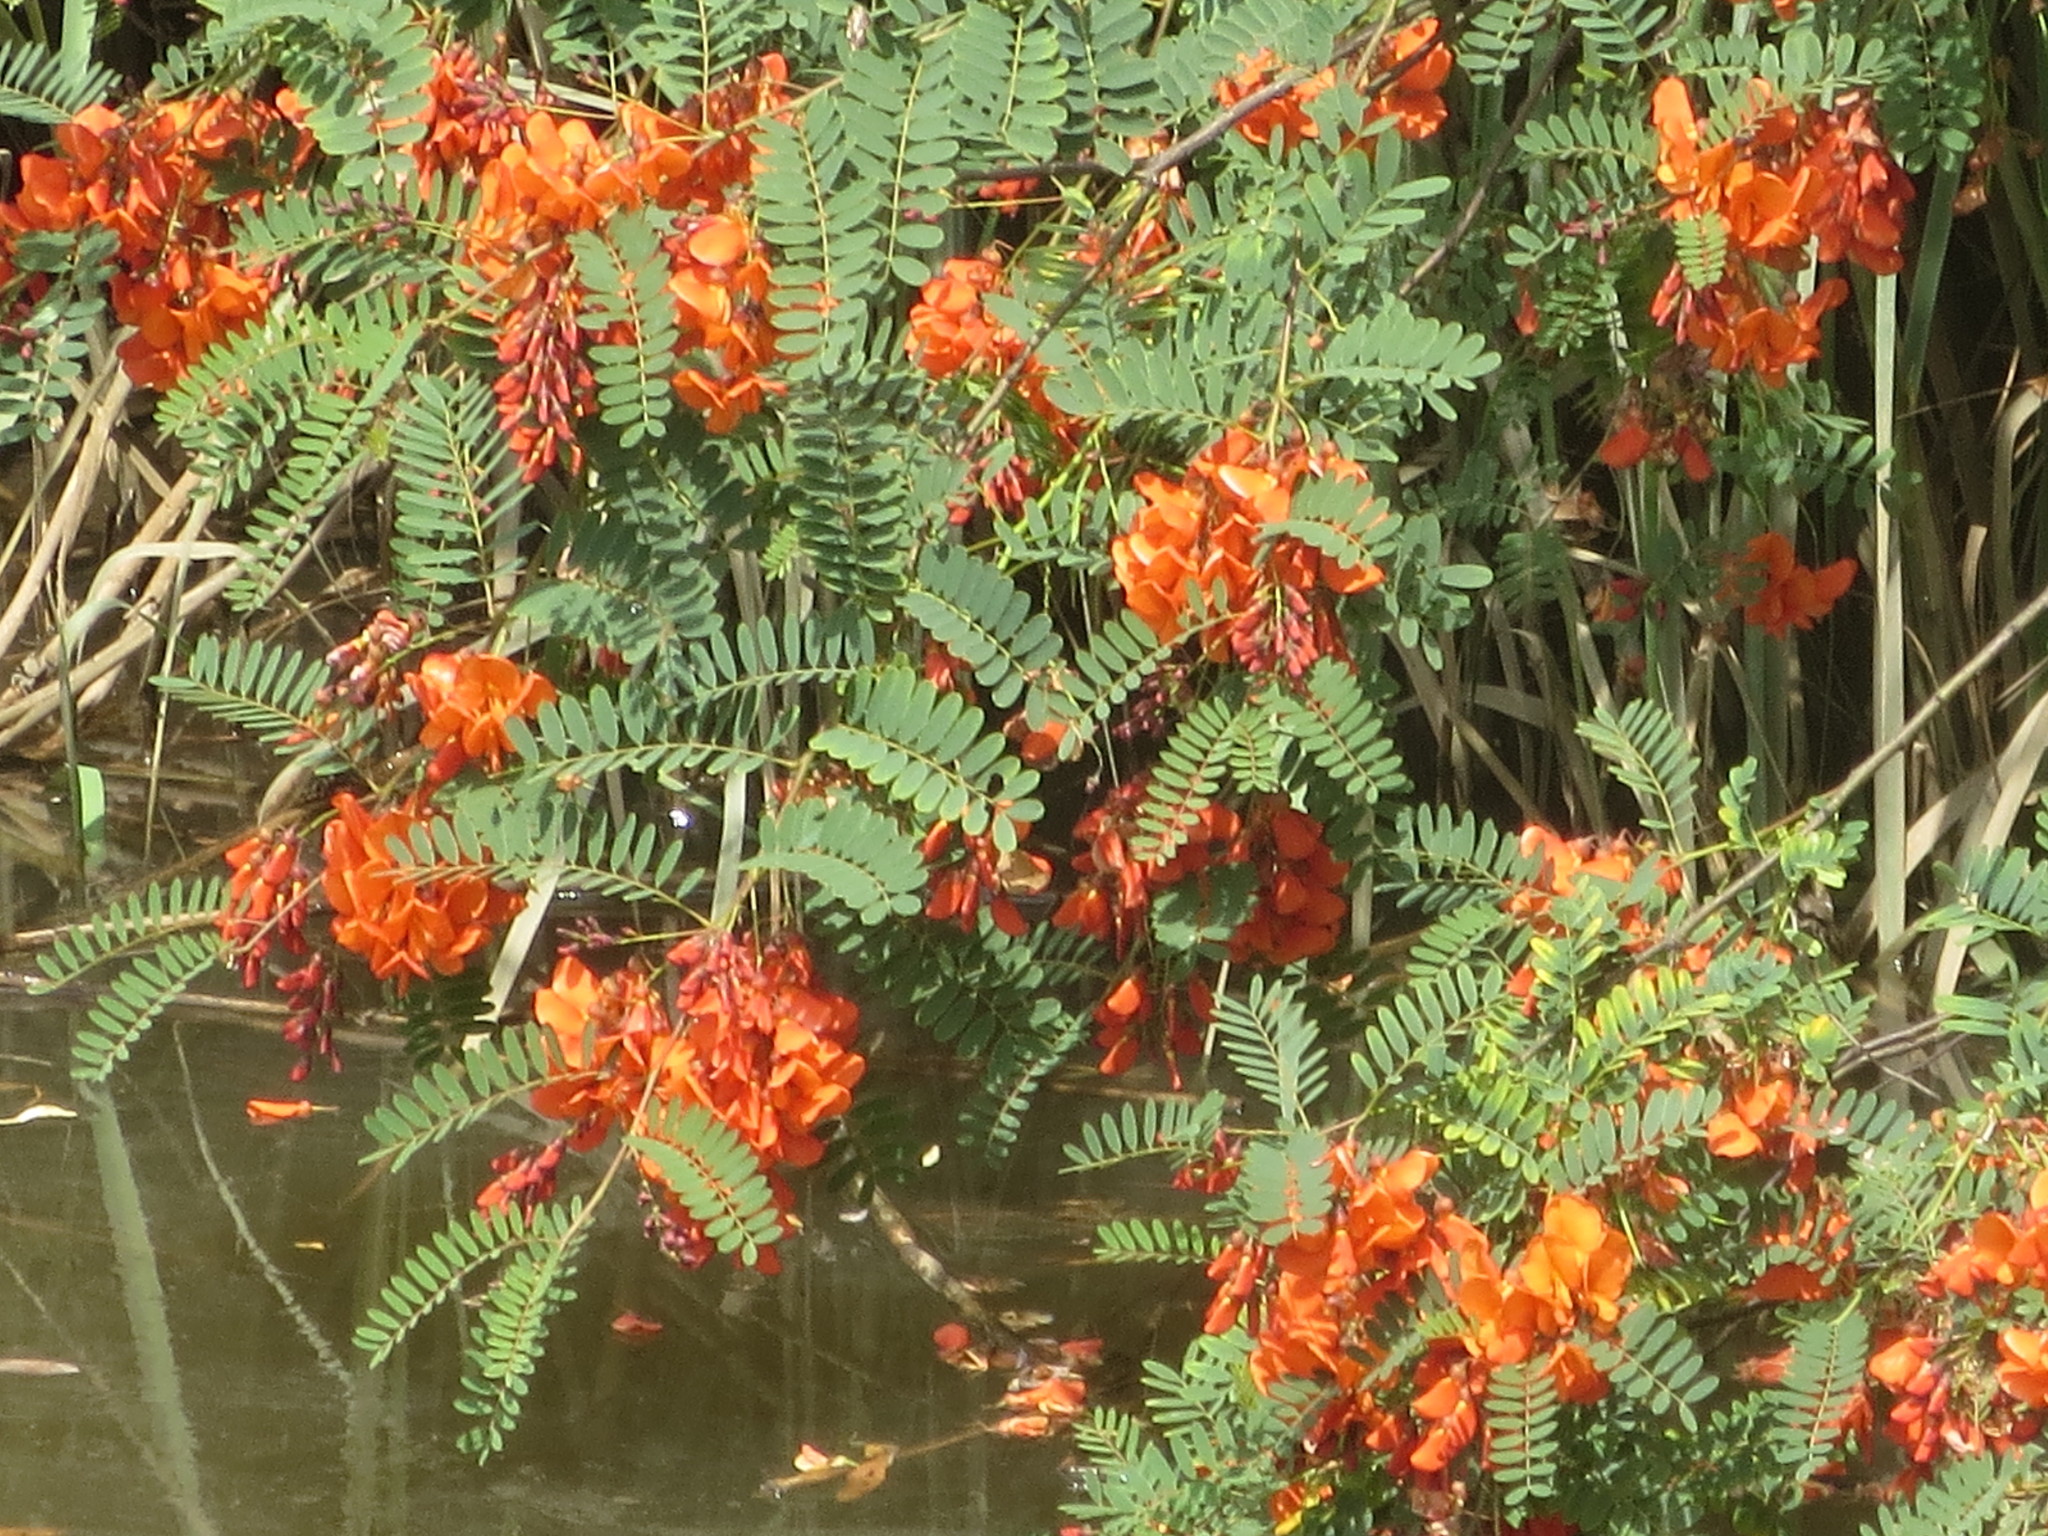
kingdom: Plantae
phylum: Tracheophyta
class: Magnoliopsida
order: Fabales
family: Fabaceae
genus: Sesbania
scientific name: Sesbania punicea
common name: Rattlebox
